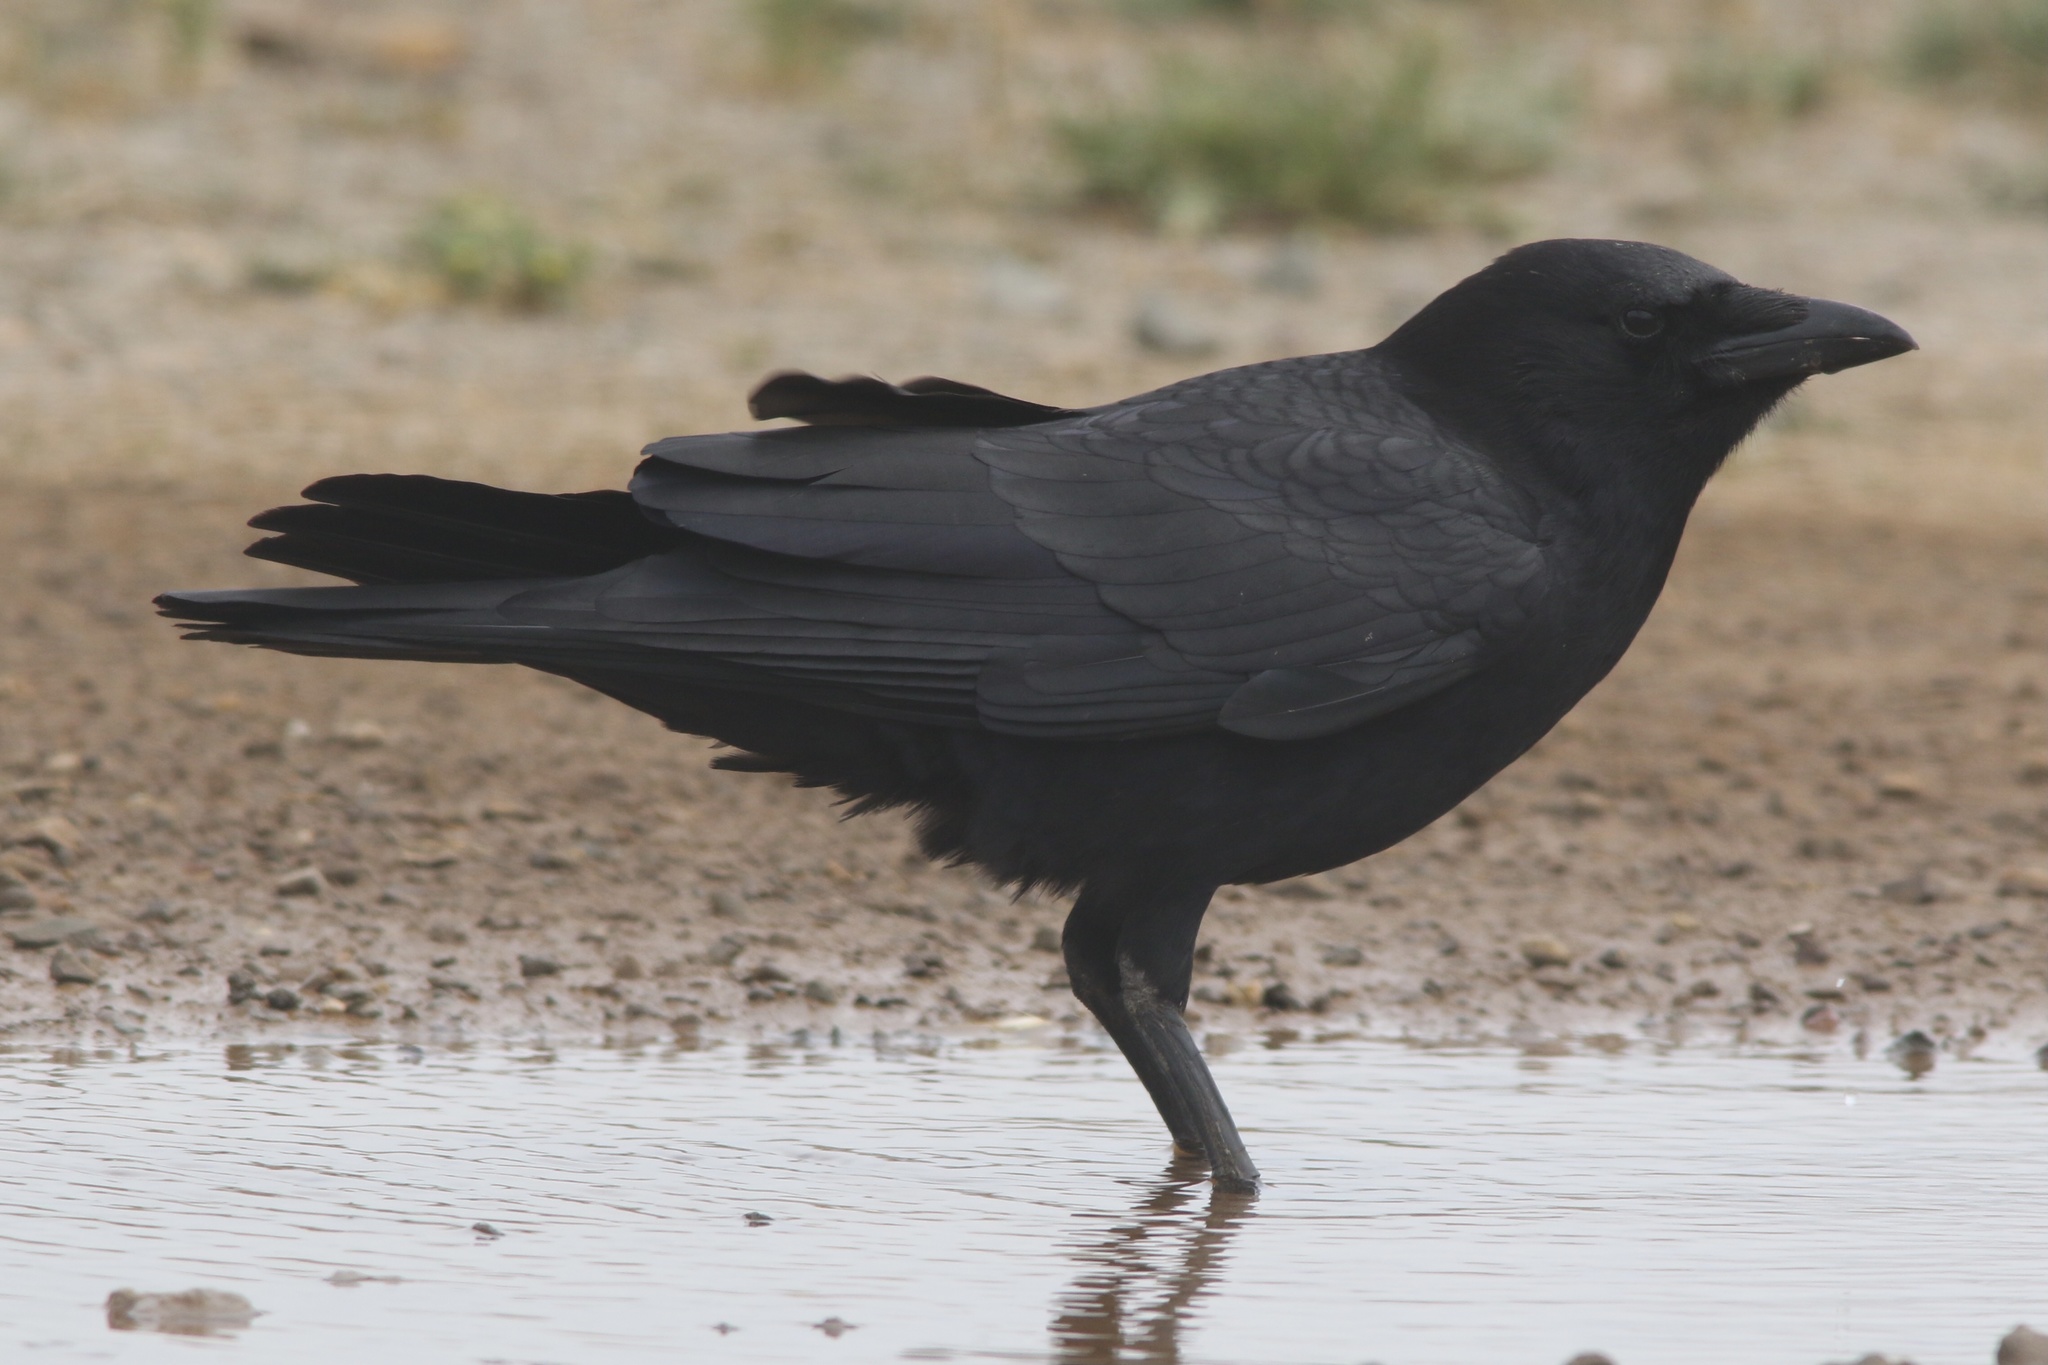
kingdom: Animalia
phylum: Chordata
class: Aves
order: Passeriformes
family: Corvidae
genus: Corvus
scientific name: Corvus brachyrhynchos
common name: American crow
